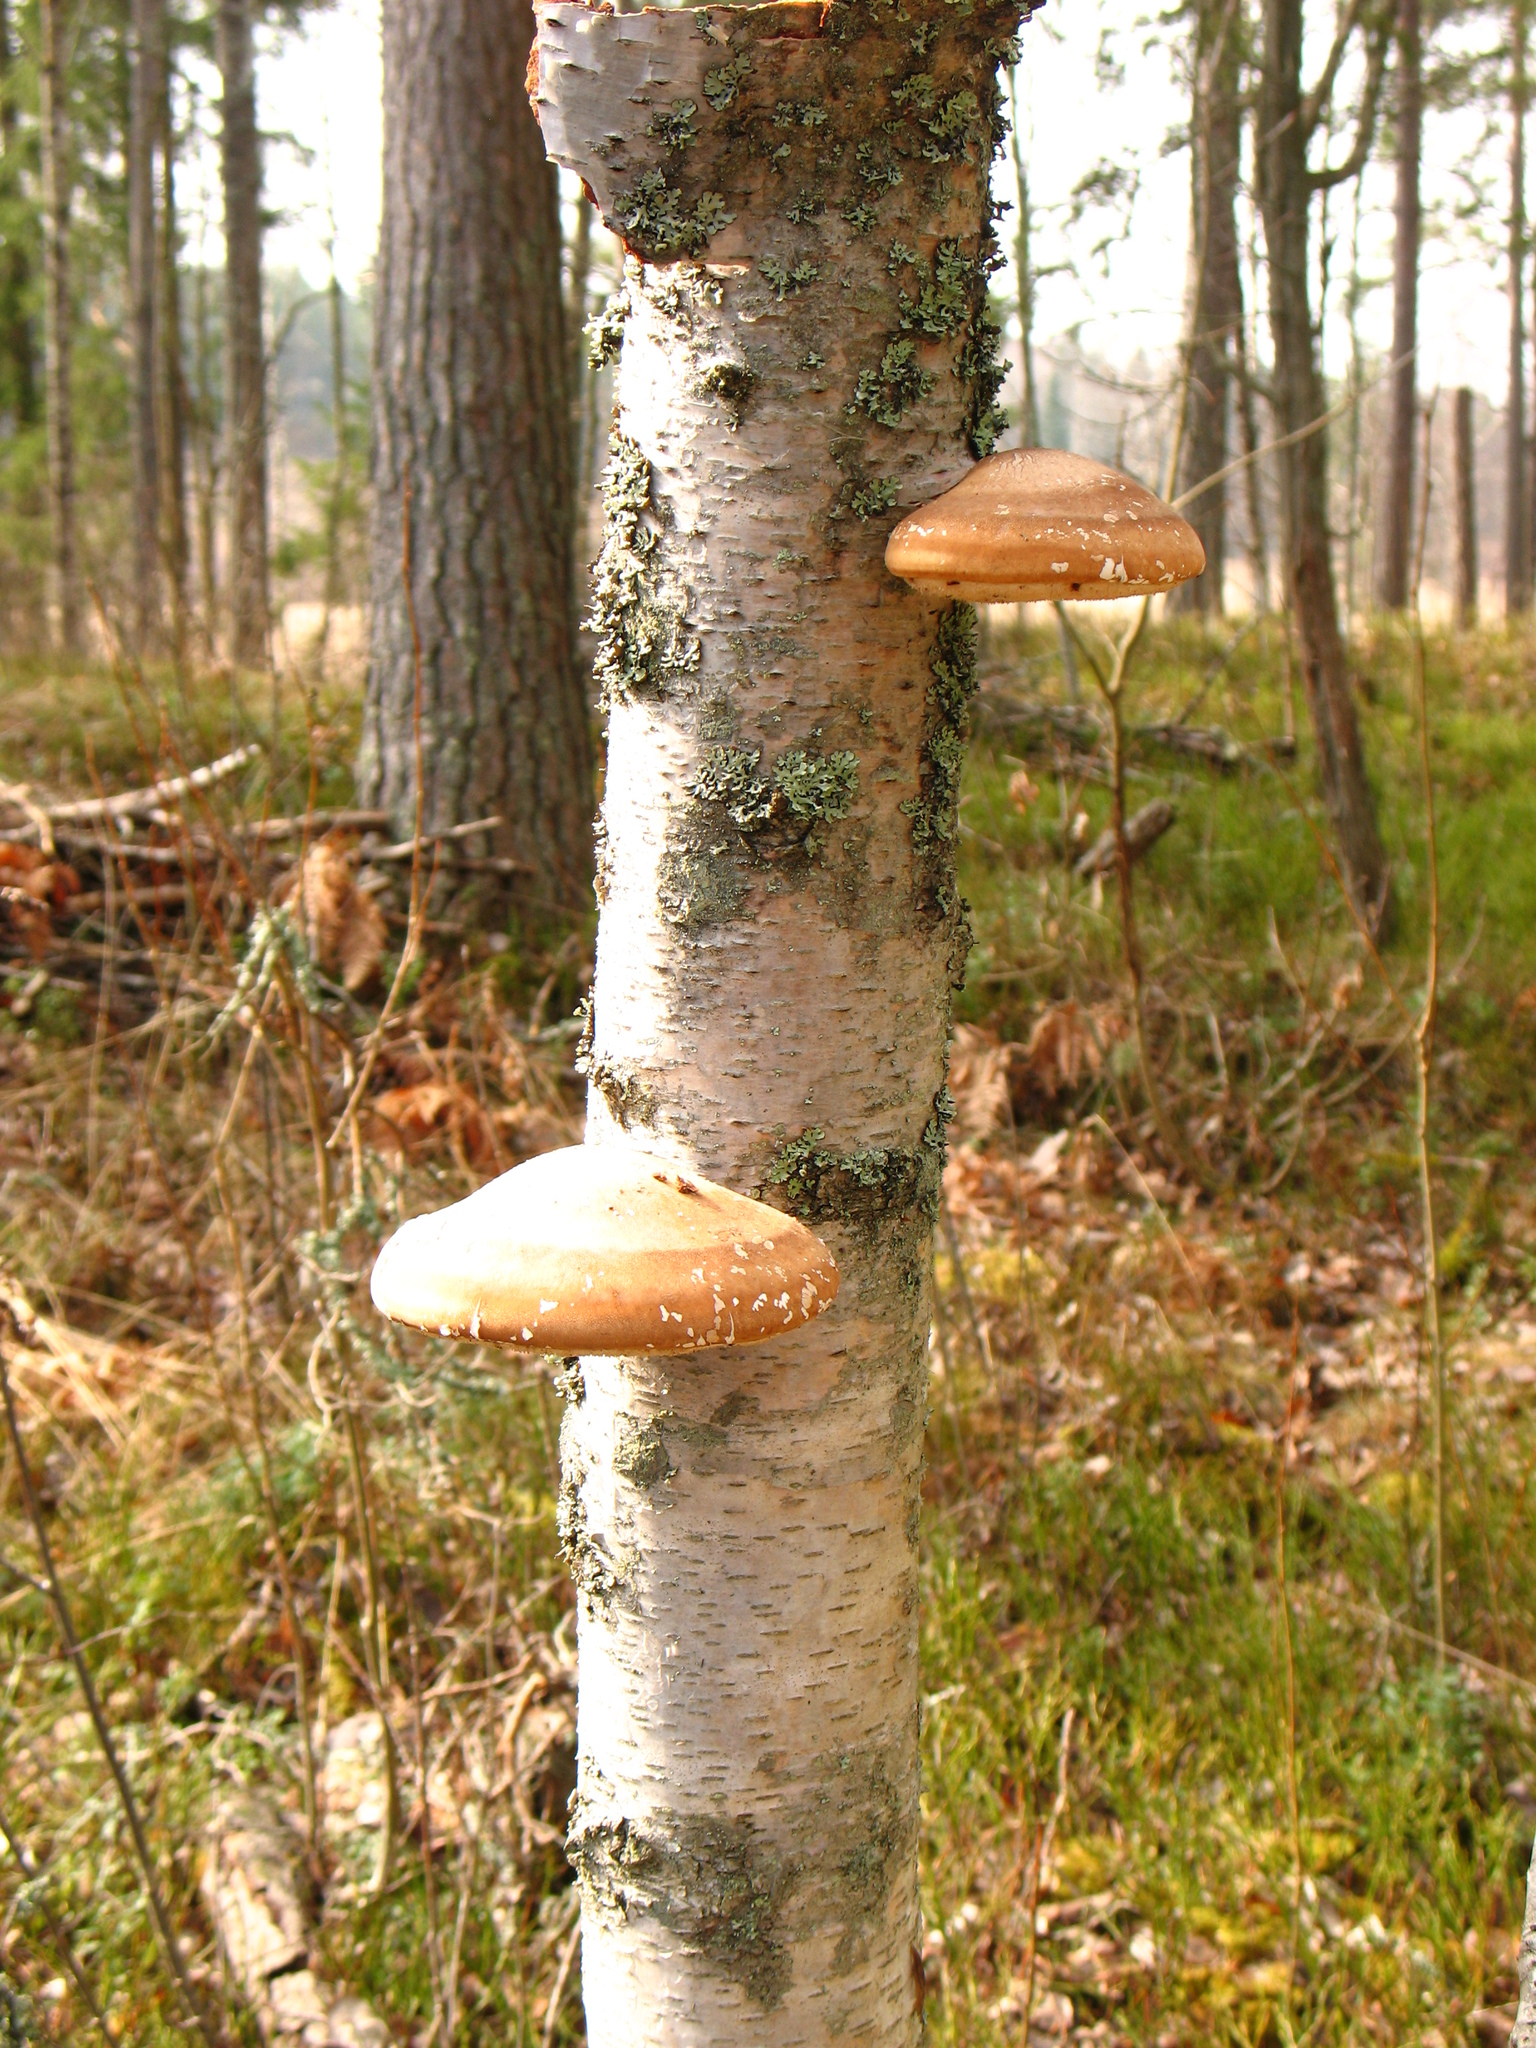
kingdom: Fungi
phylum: Basidiomycota
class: Agaricomycetes
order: Polyporales
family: Fomitopsidaceae
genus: Fomitopsis
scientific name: Fomitopsis betulina
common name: Birch polypore
